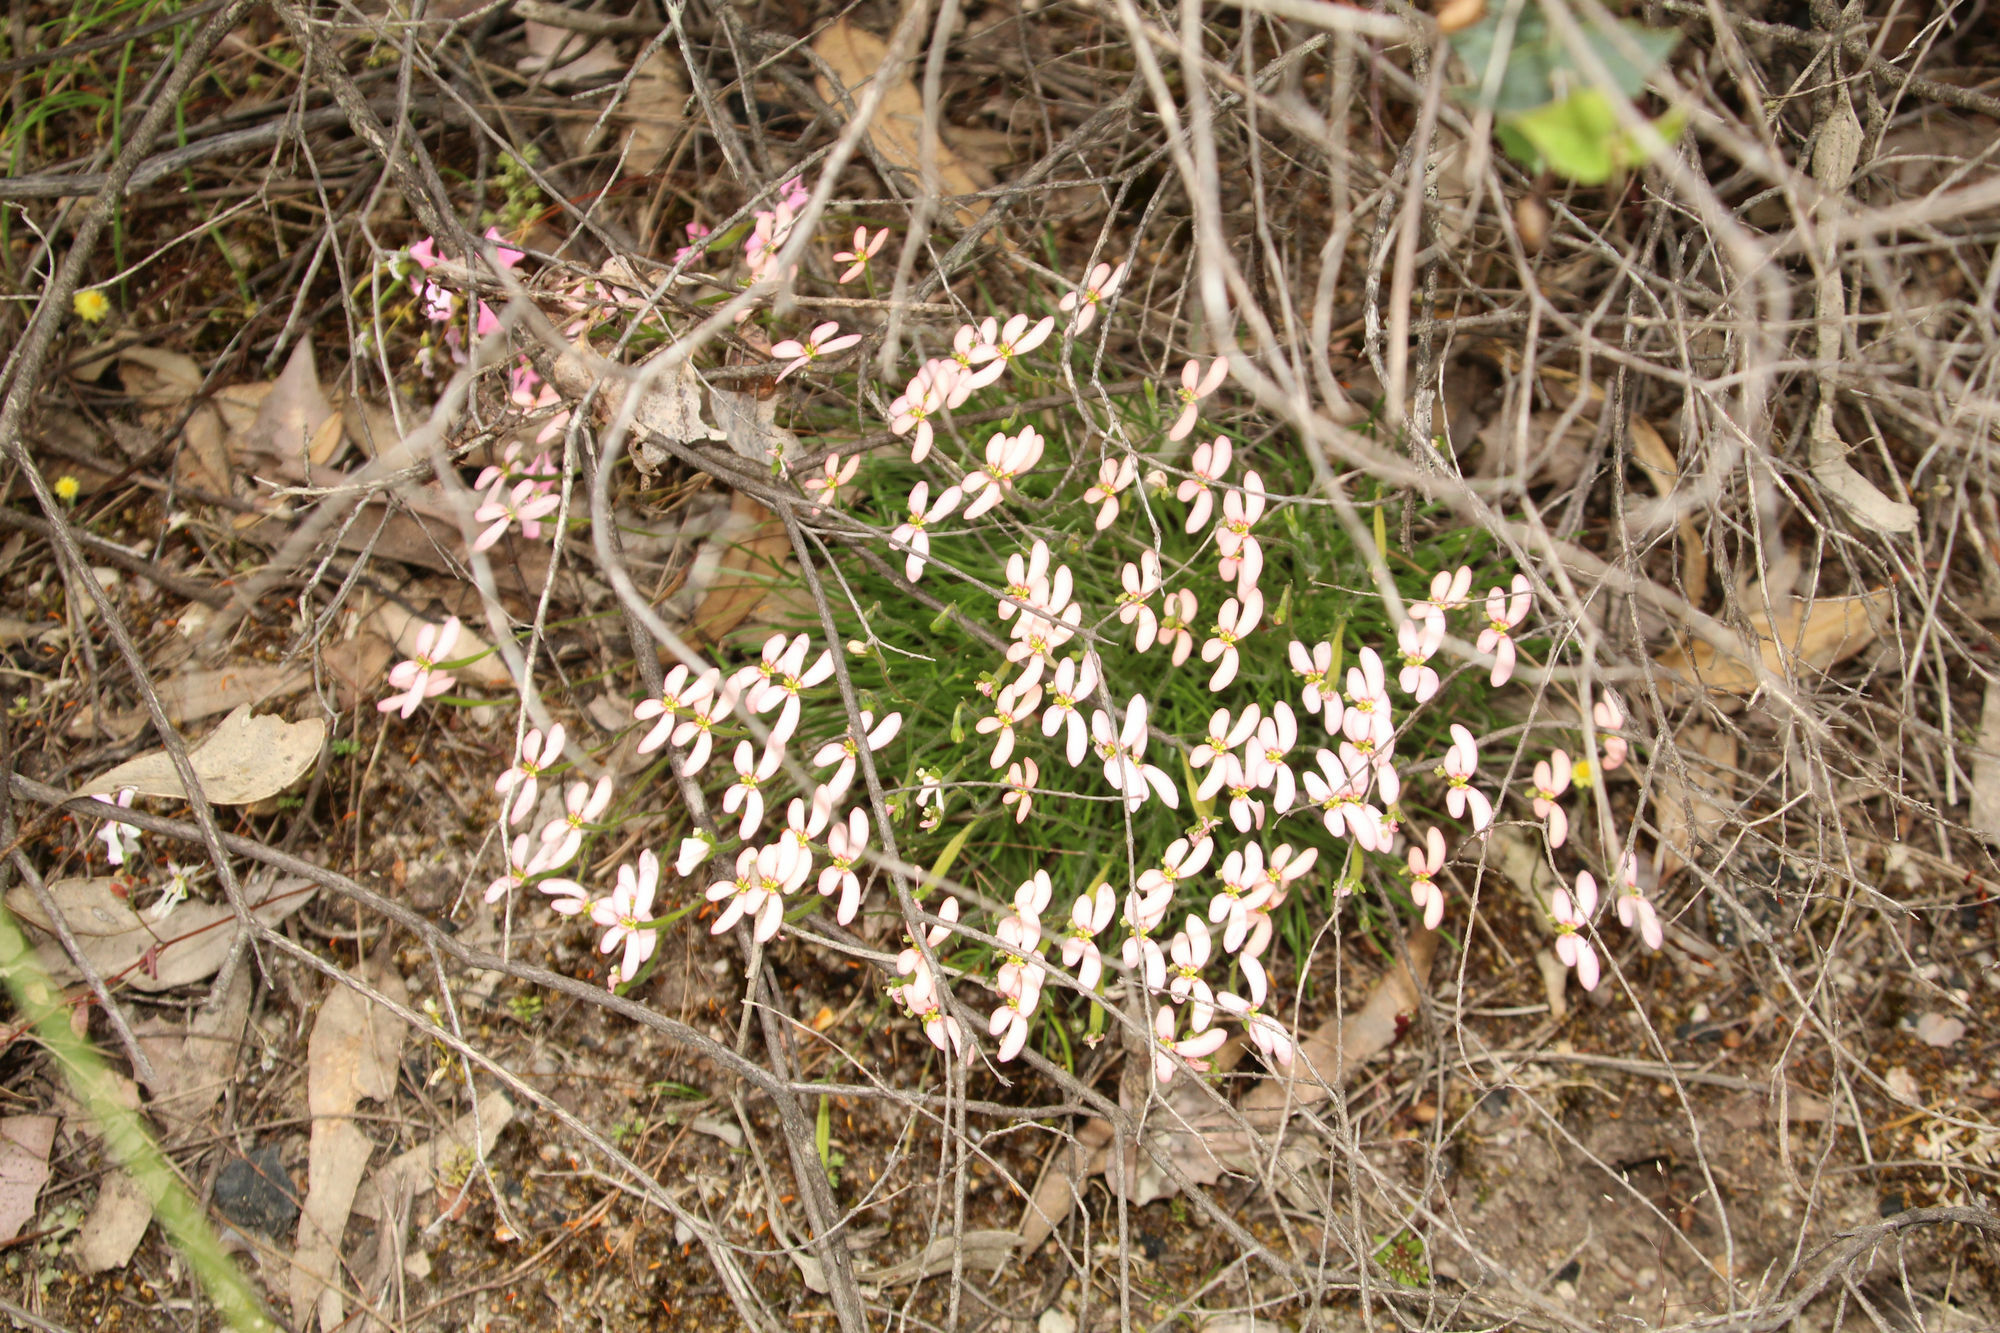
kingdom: Plantae
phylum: Tracheophyta
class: Magnoliopsida
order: Asterales
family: Stylidiaceae
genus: Stylidium
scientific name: Stylidium uniflorum
